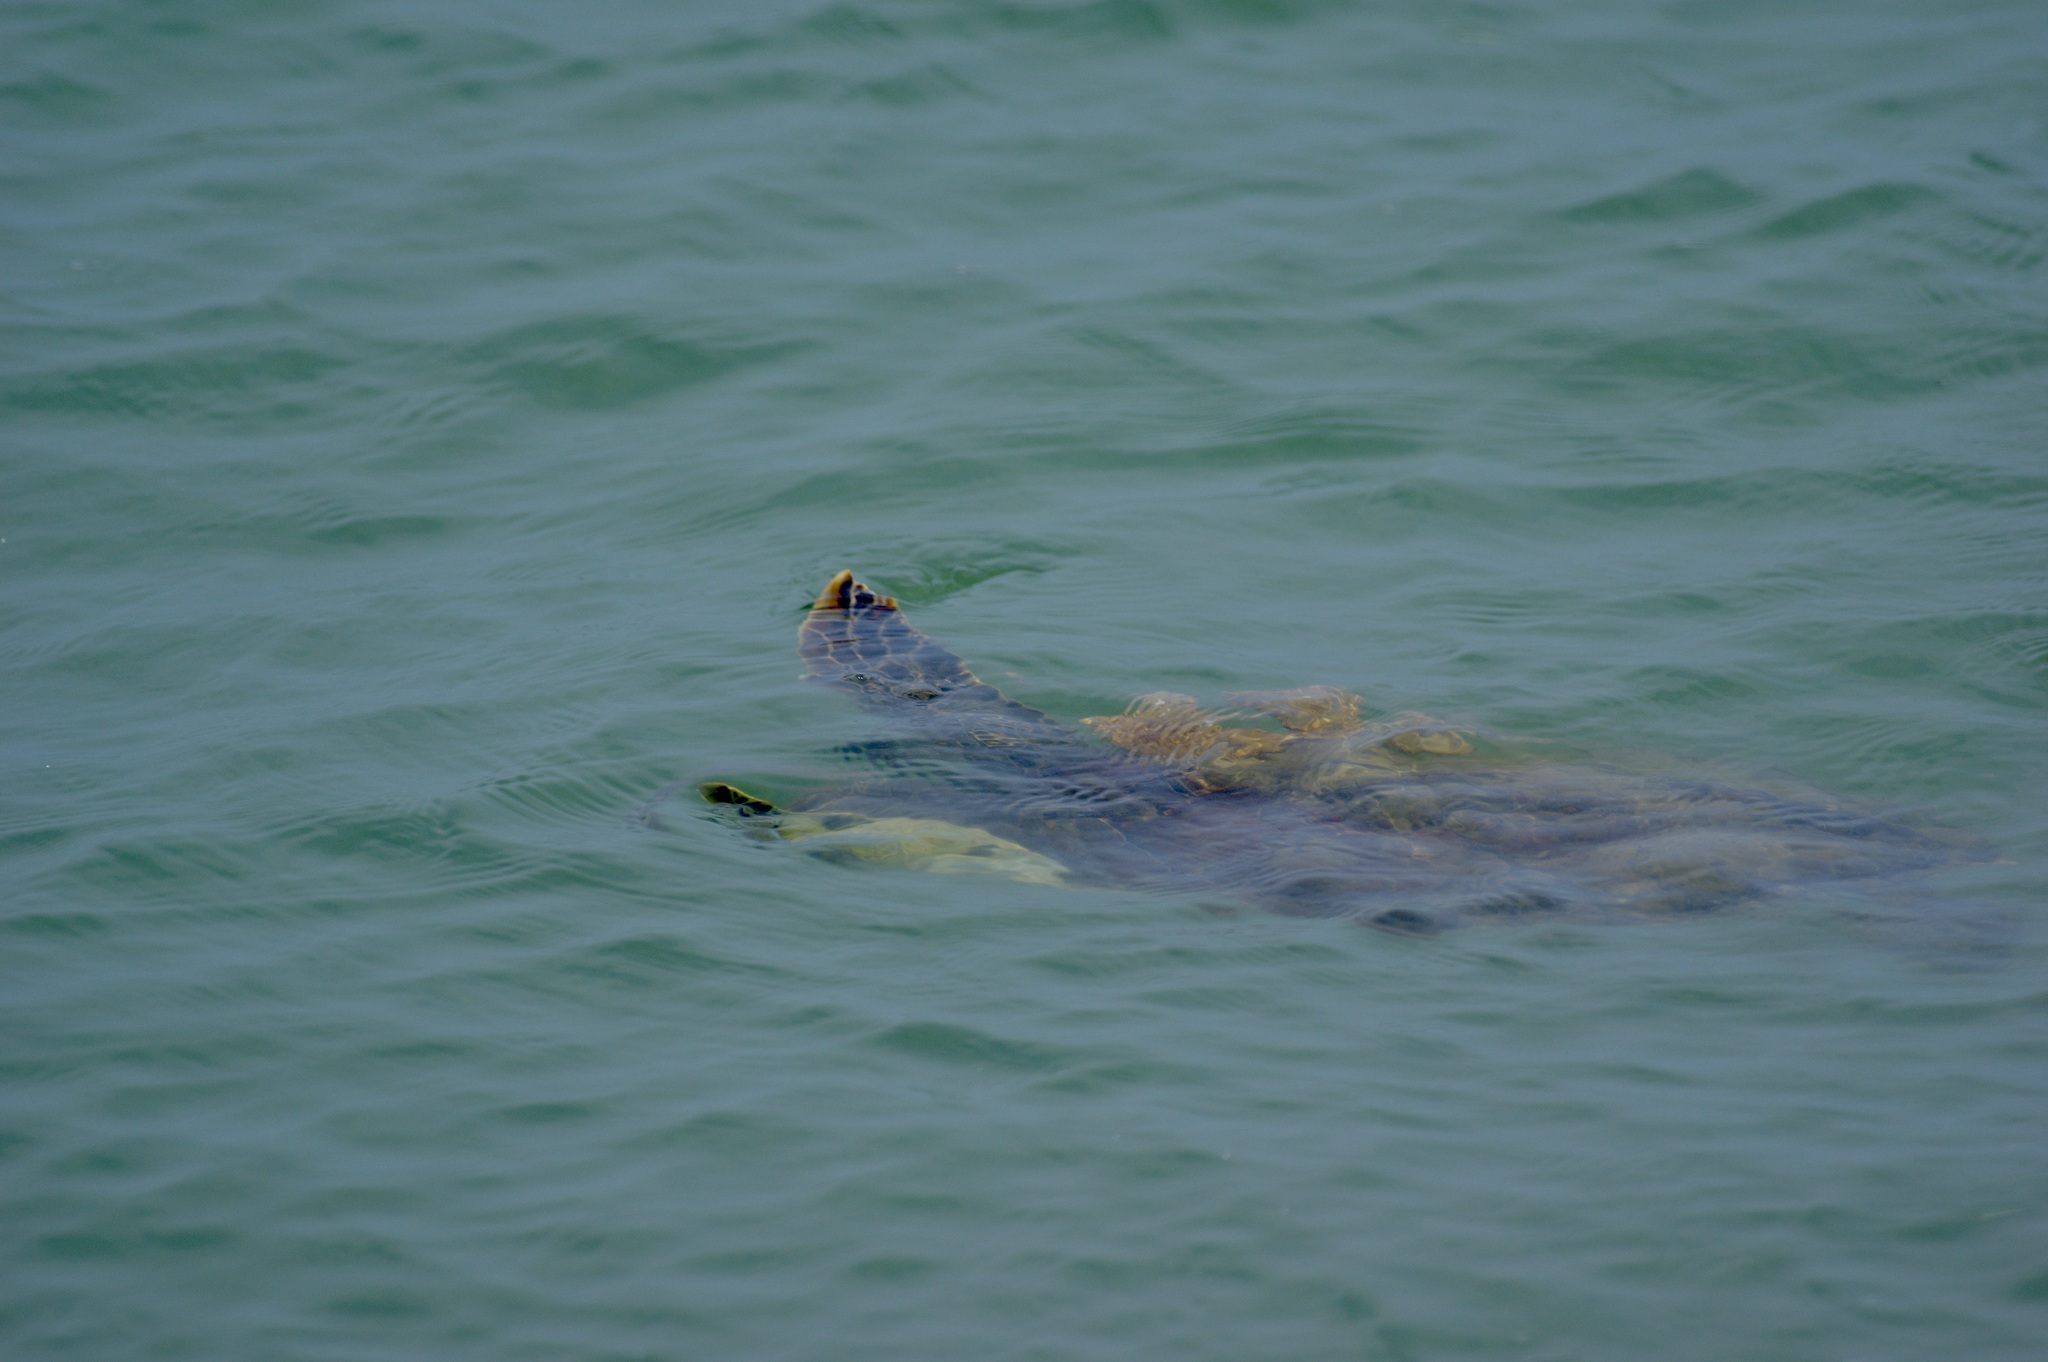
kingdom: Animalia
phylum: Chordata
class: Testudines
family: Cheloniidae
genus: Chelonia
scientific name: Chelonia mydas
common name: Green turtle
